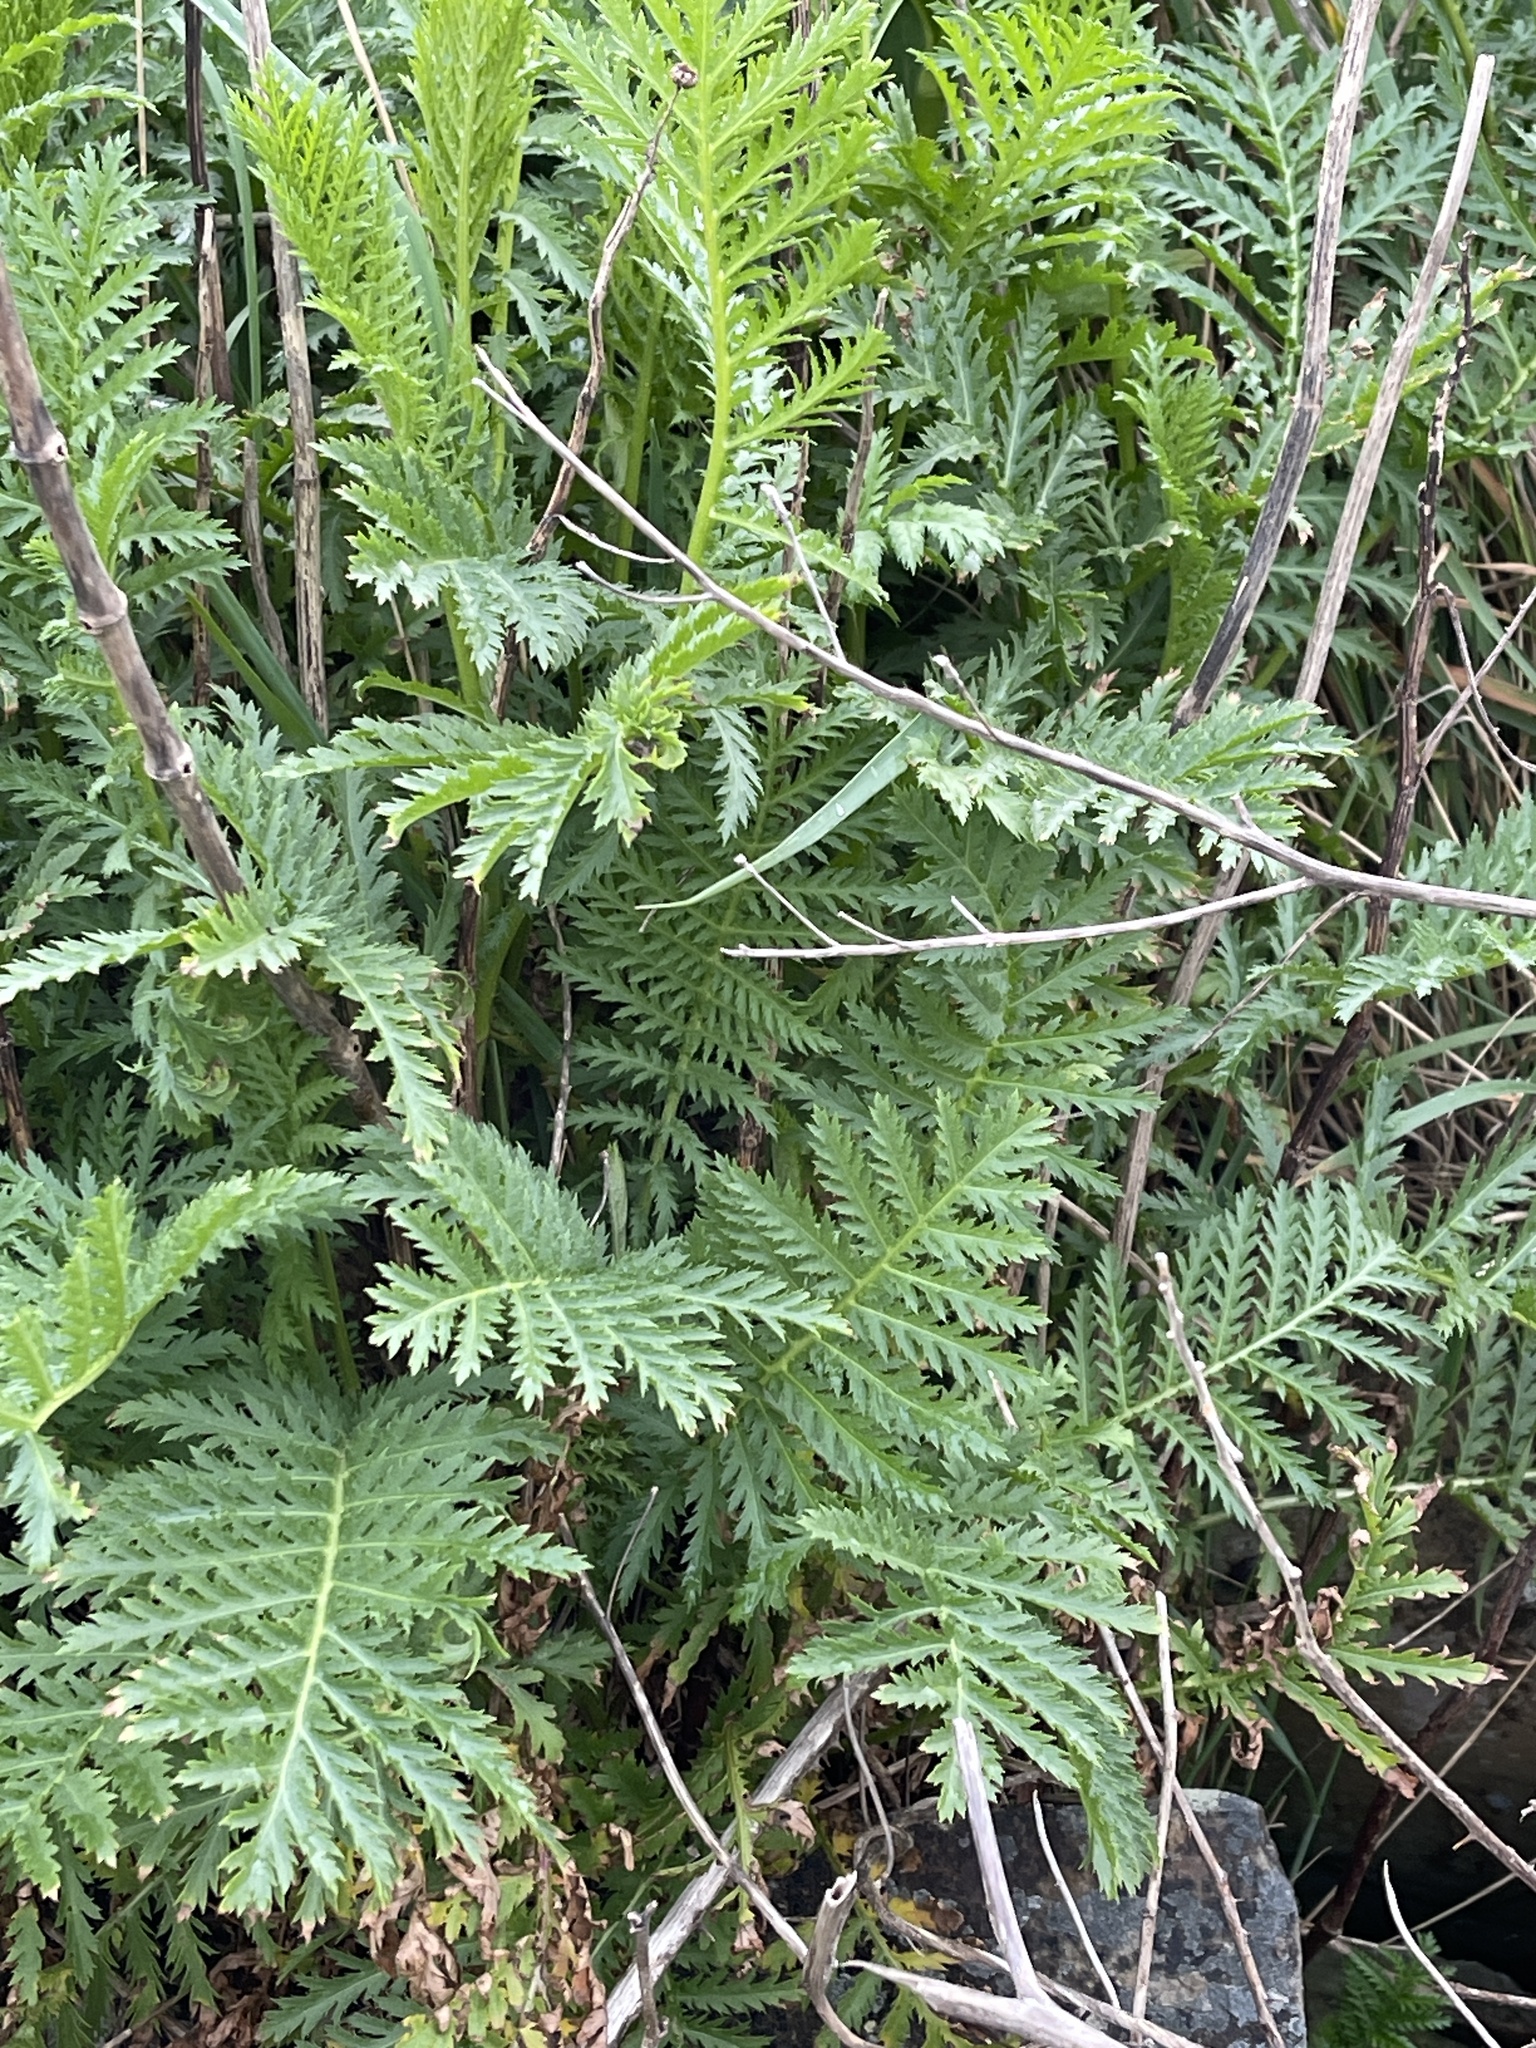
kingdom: Plantae
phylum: Tracheophyta
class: Magnoliopsida
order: Asterales
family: Asteraceae
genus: Tanacetum
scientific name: Tanacetum vulgare
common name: Common tansy
